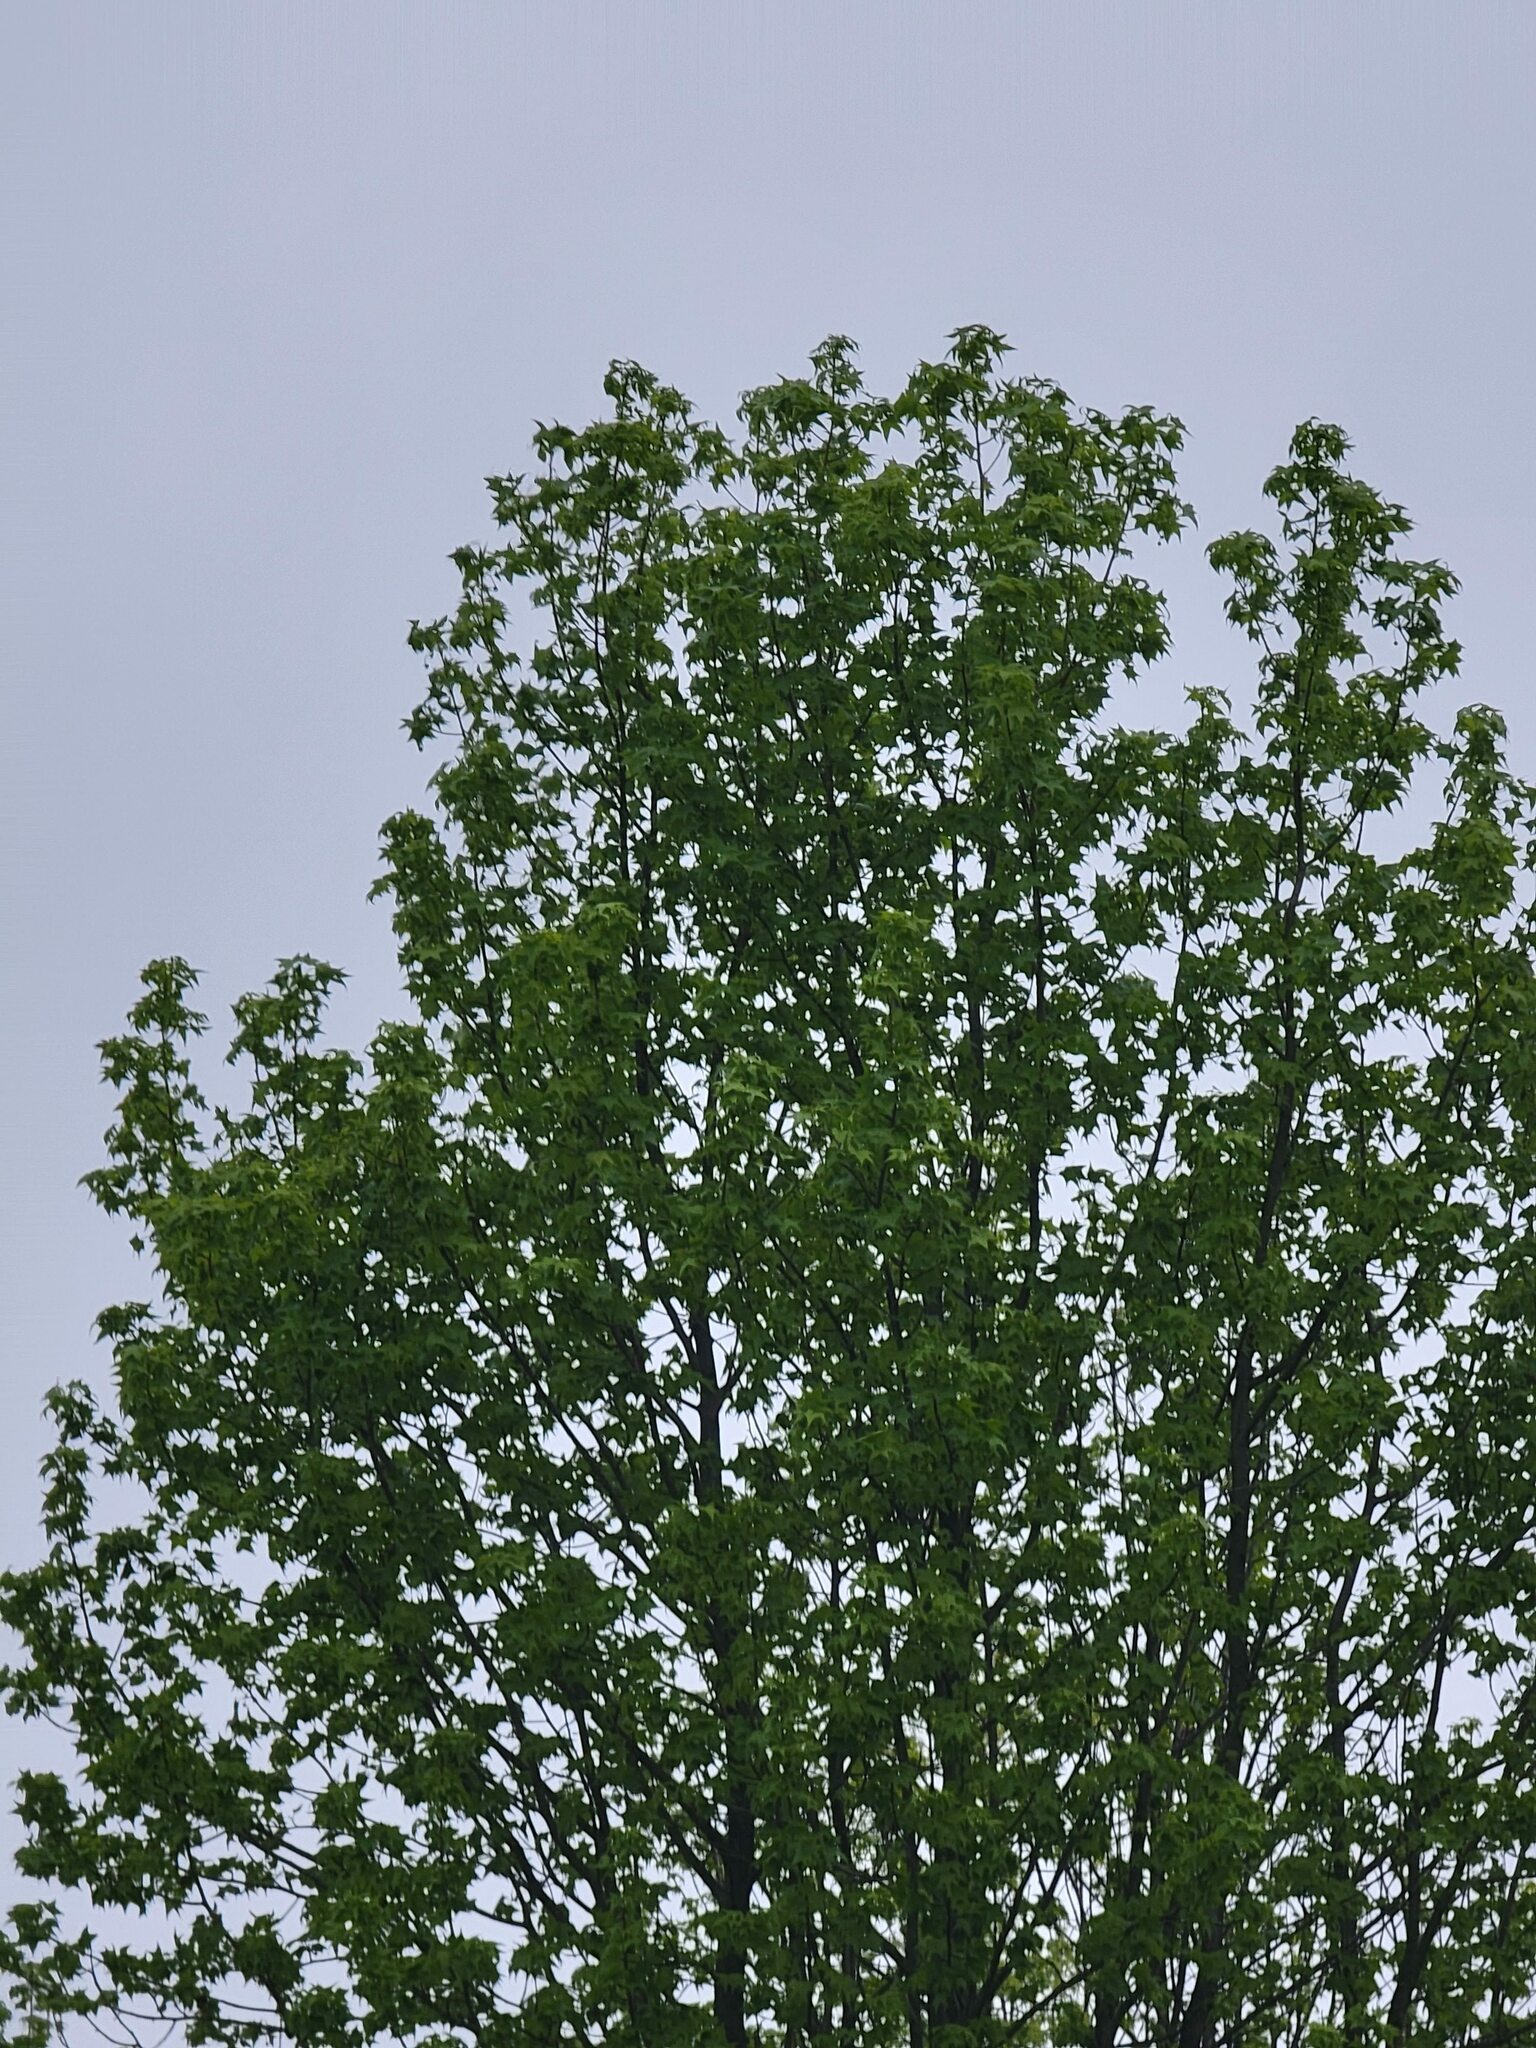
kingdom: Plantae
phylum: Tracheophyta
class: Magnoliopsida
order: Saxifragales
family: Altingiaceae
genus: Liquidambar
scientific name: Liquidambar styraciflua
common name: Sweet gum
